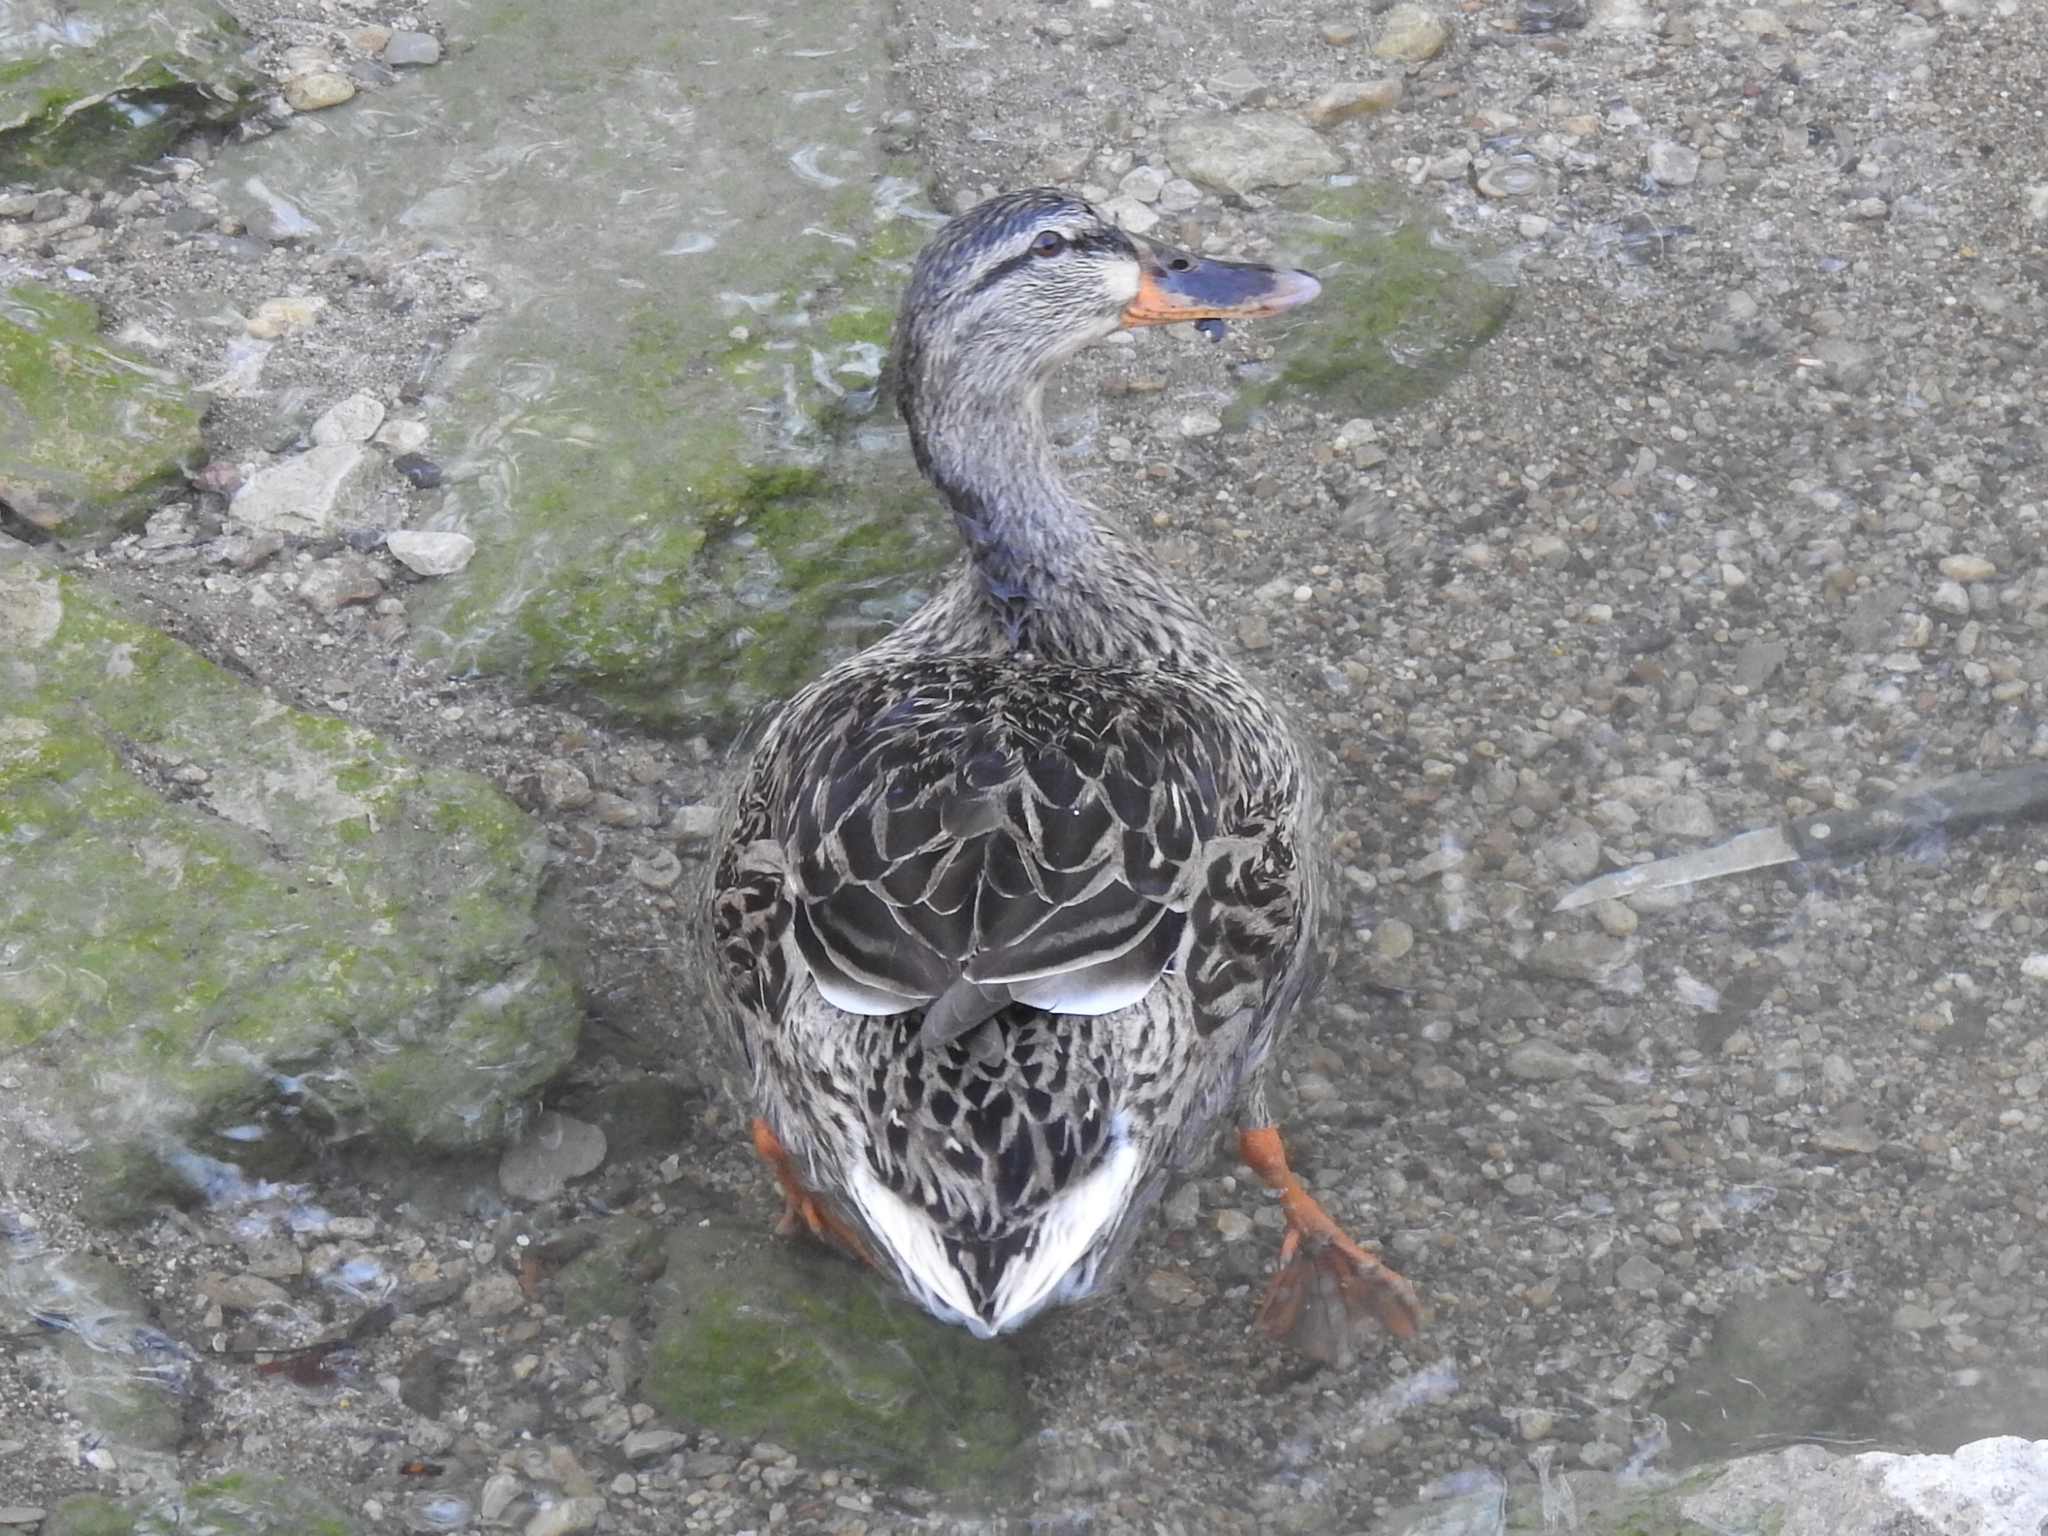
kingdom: Animalia
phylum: Chordata
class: Aves
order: Anseriformes
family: Anatidae
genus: Anas
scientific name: Anas platyrhynchos
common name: Mallard
